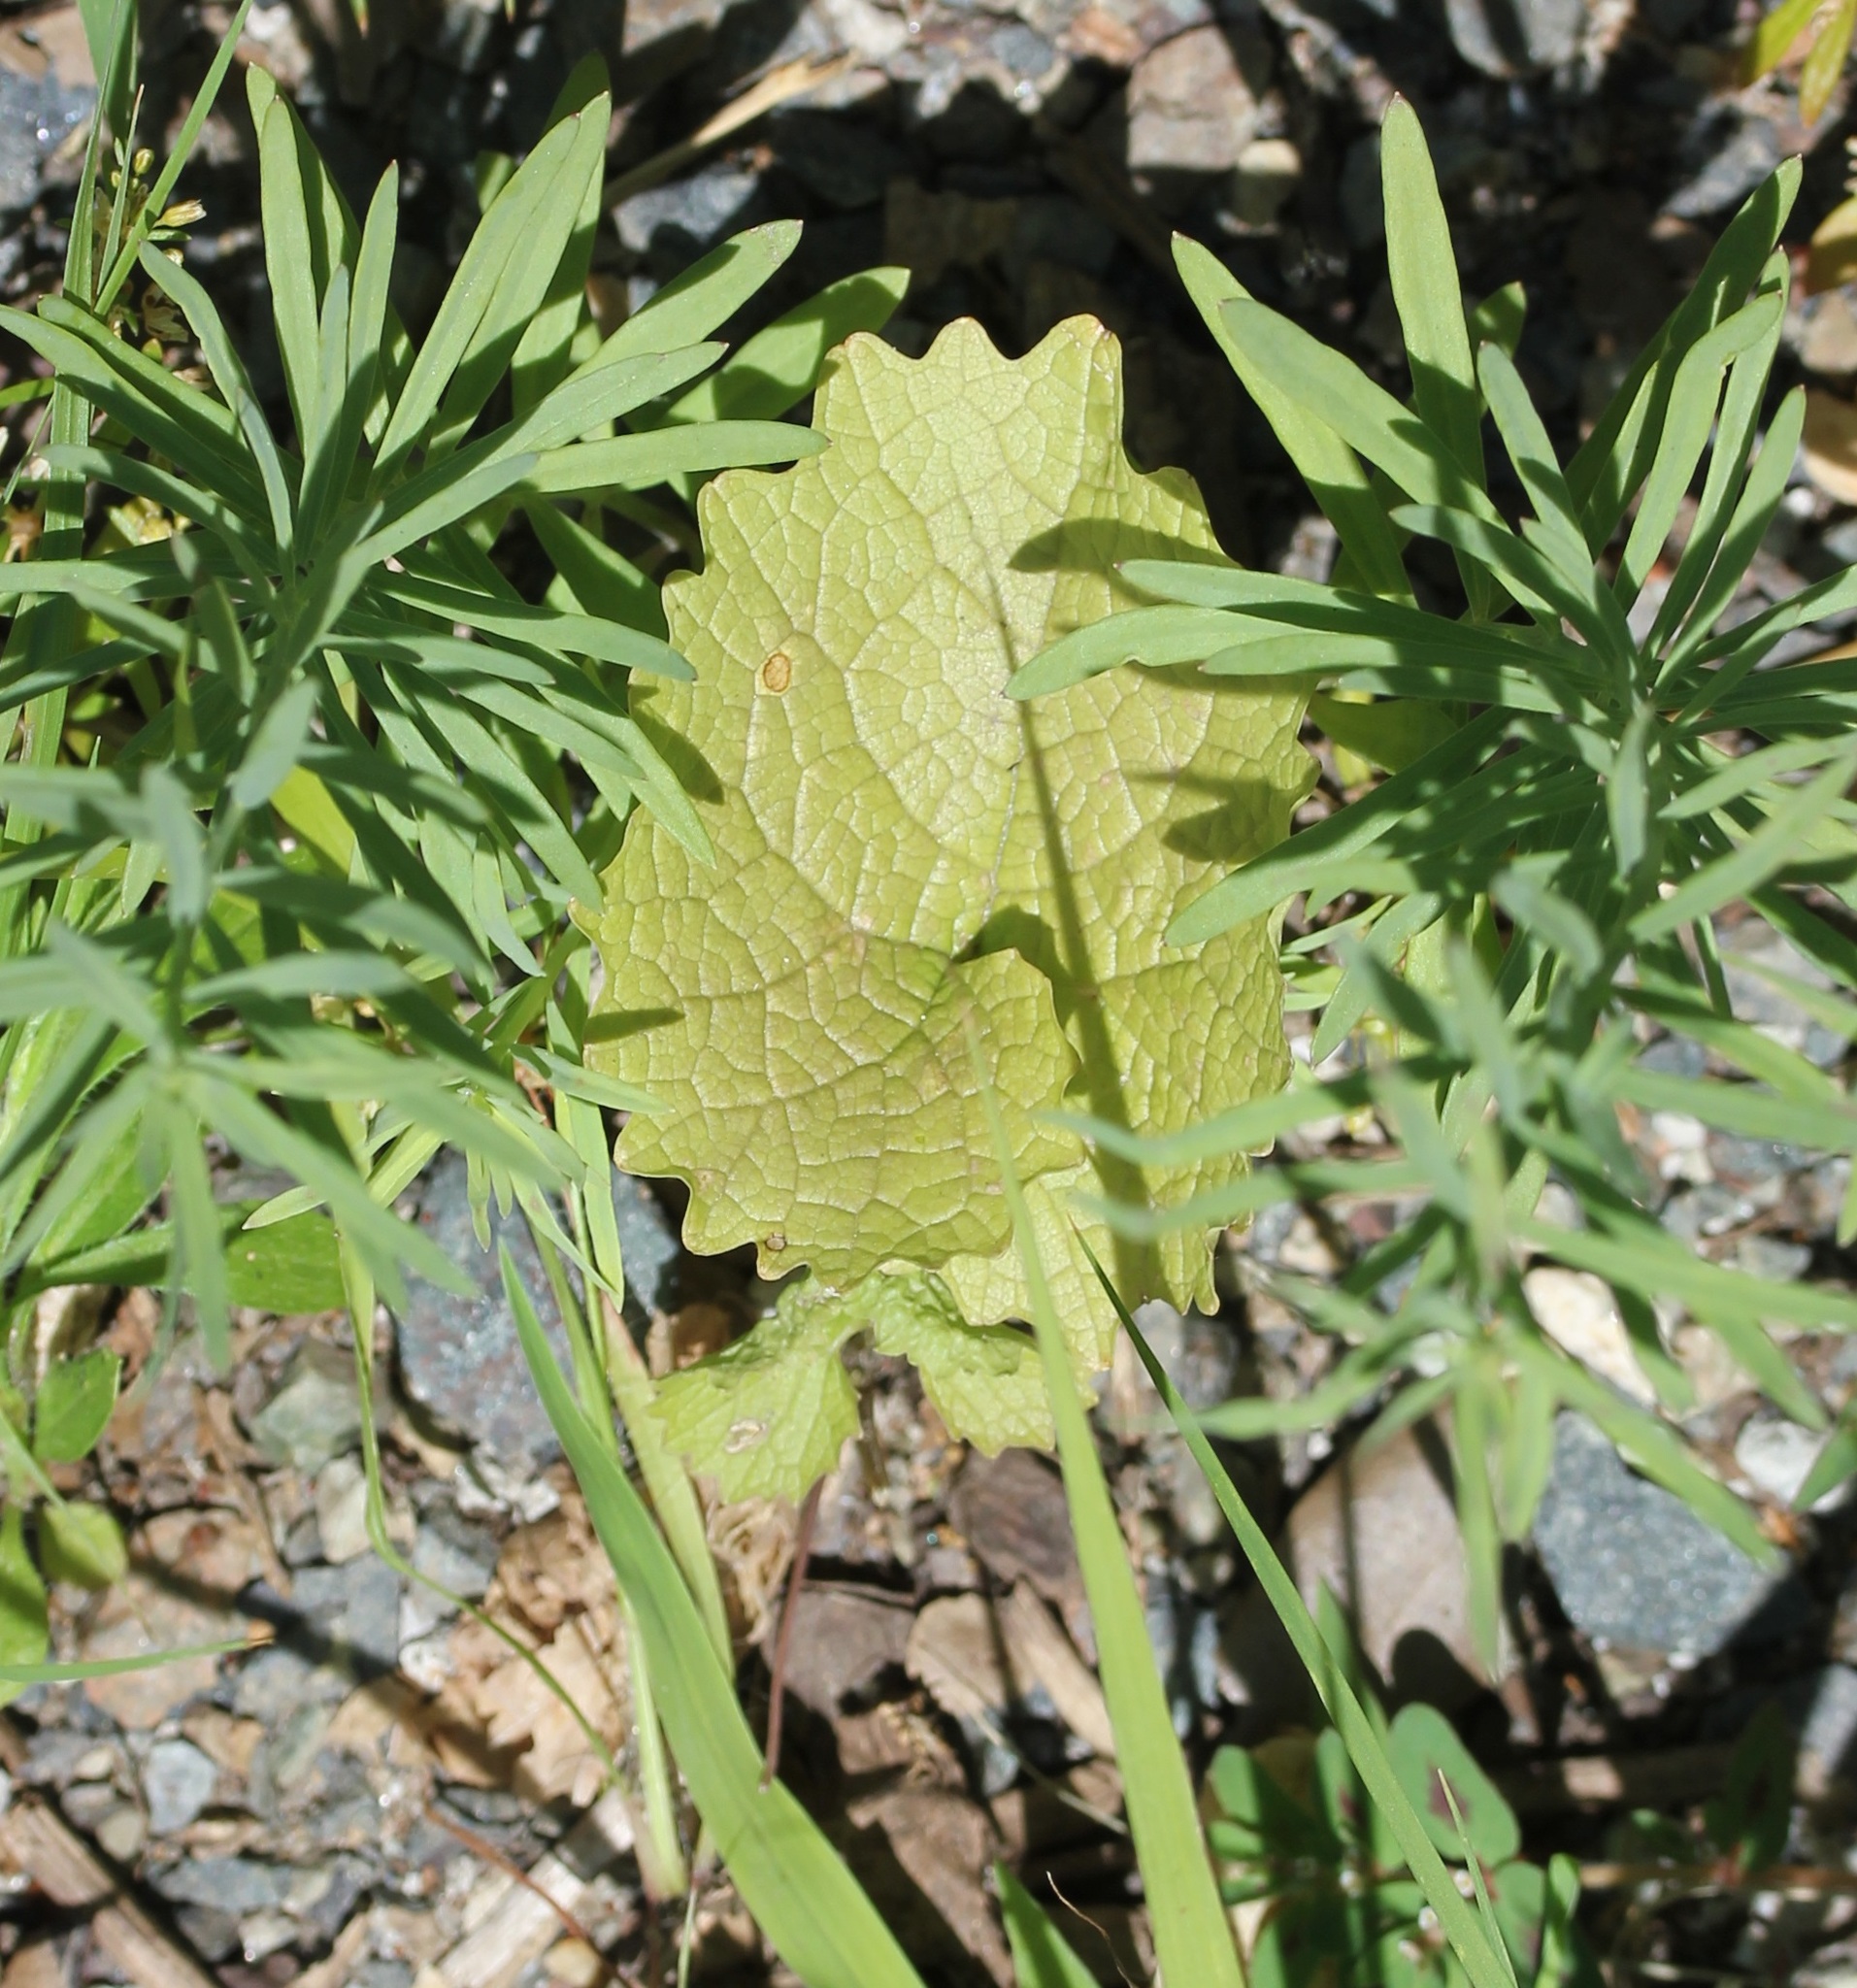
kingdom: Plantae
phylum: Tracheophyta
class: Magnoliopsida
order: Brassicales
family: Brassicaceae
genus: Alliaria
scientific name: Alliaria petiolata
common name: Garlic mustard
